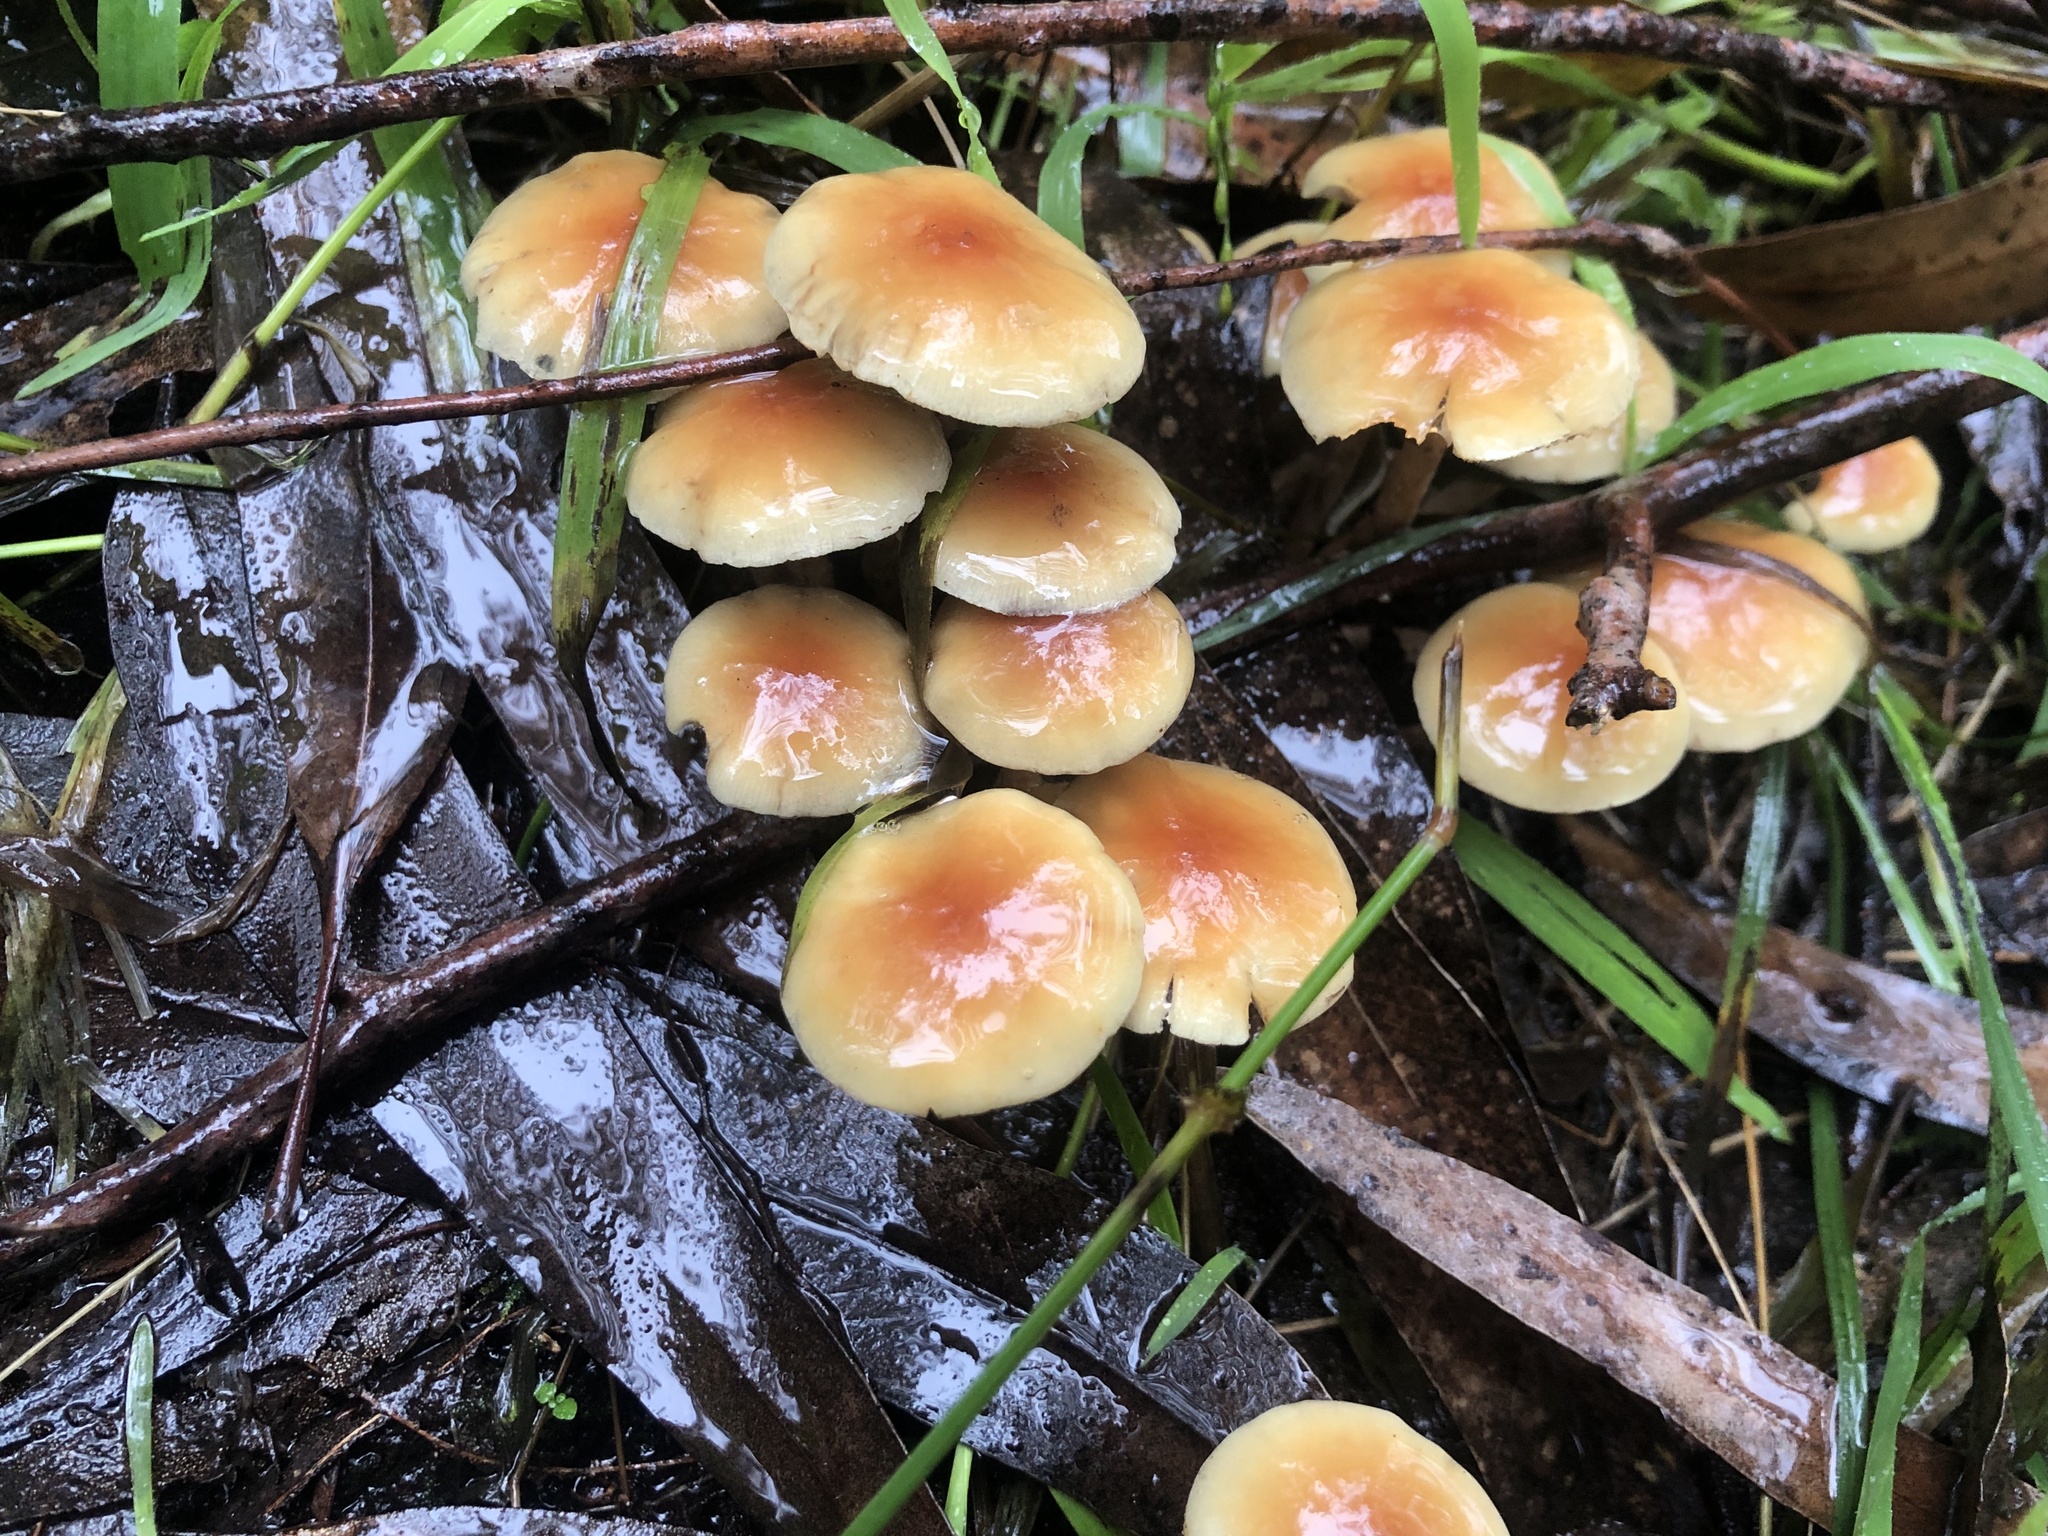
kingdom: Fungi
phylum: Basidiomycota
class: Agaricomycetes
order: Agaricales
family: Strophariaceae
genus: Hypholoma
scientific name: Hypholoma fasciculare
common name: Sulphur tuft
